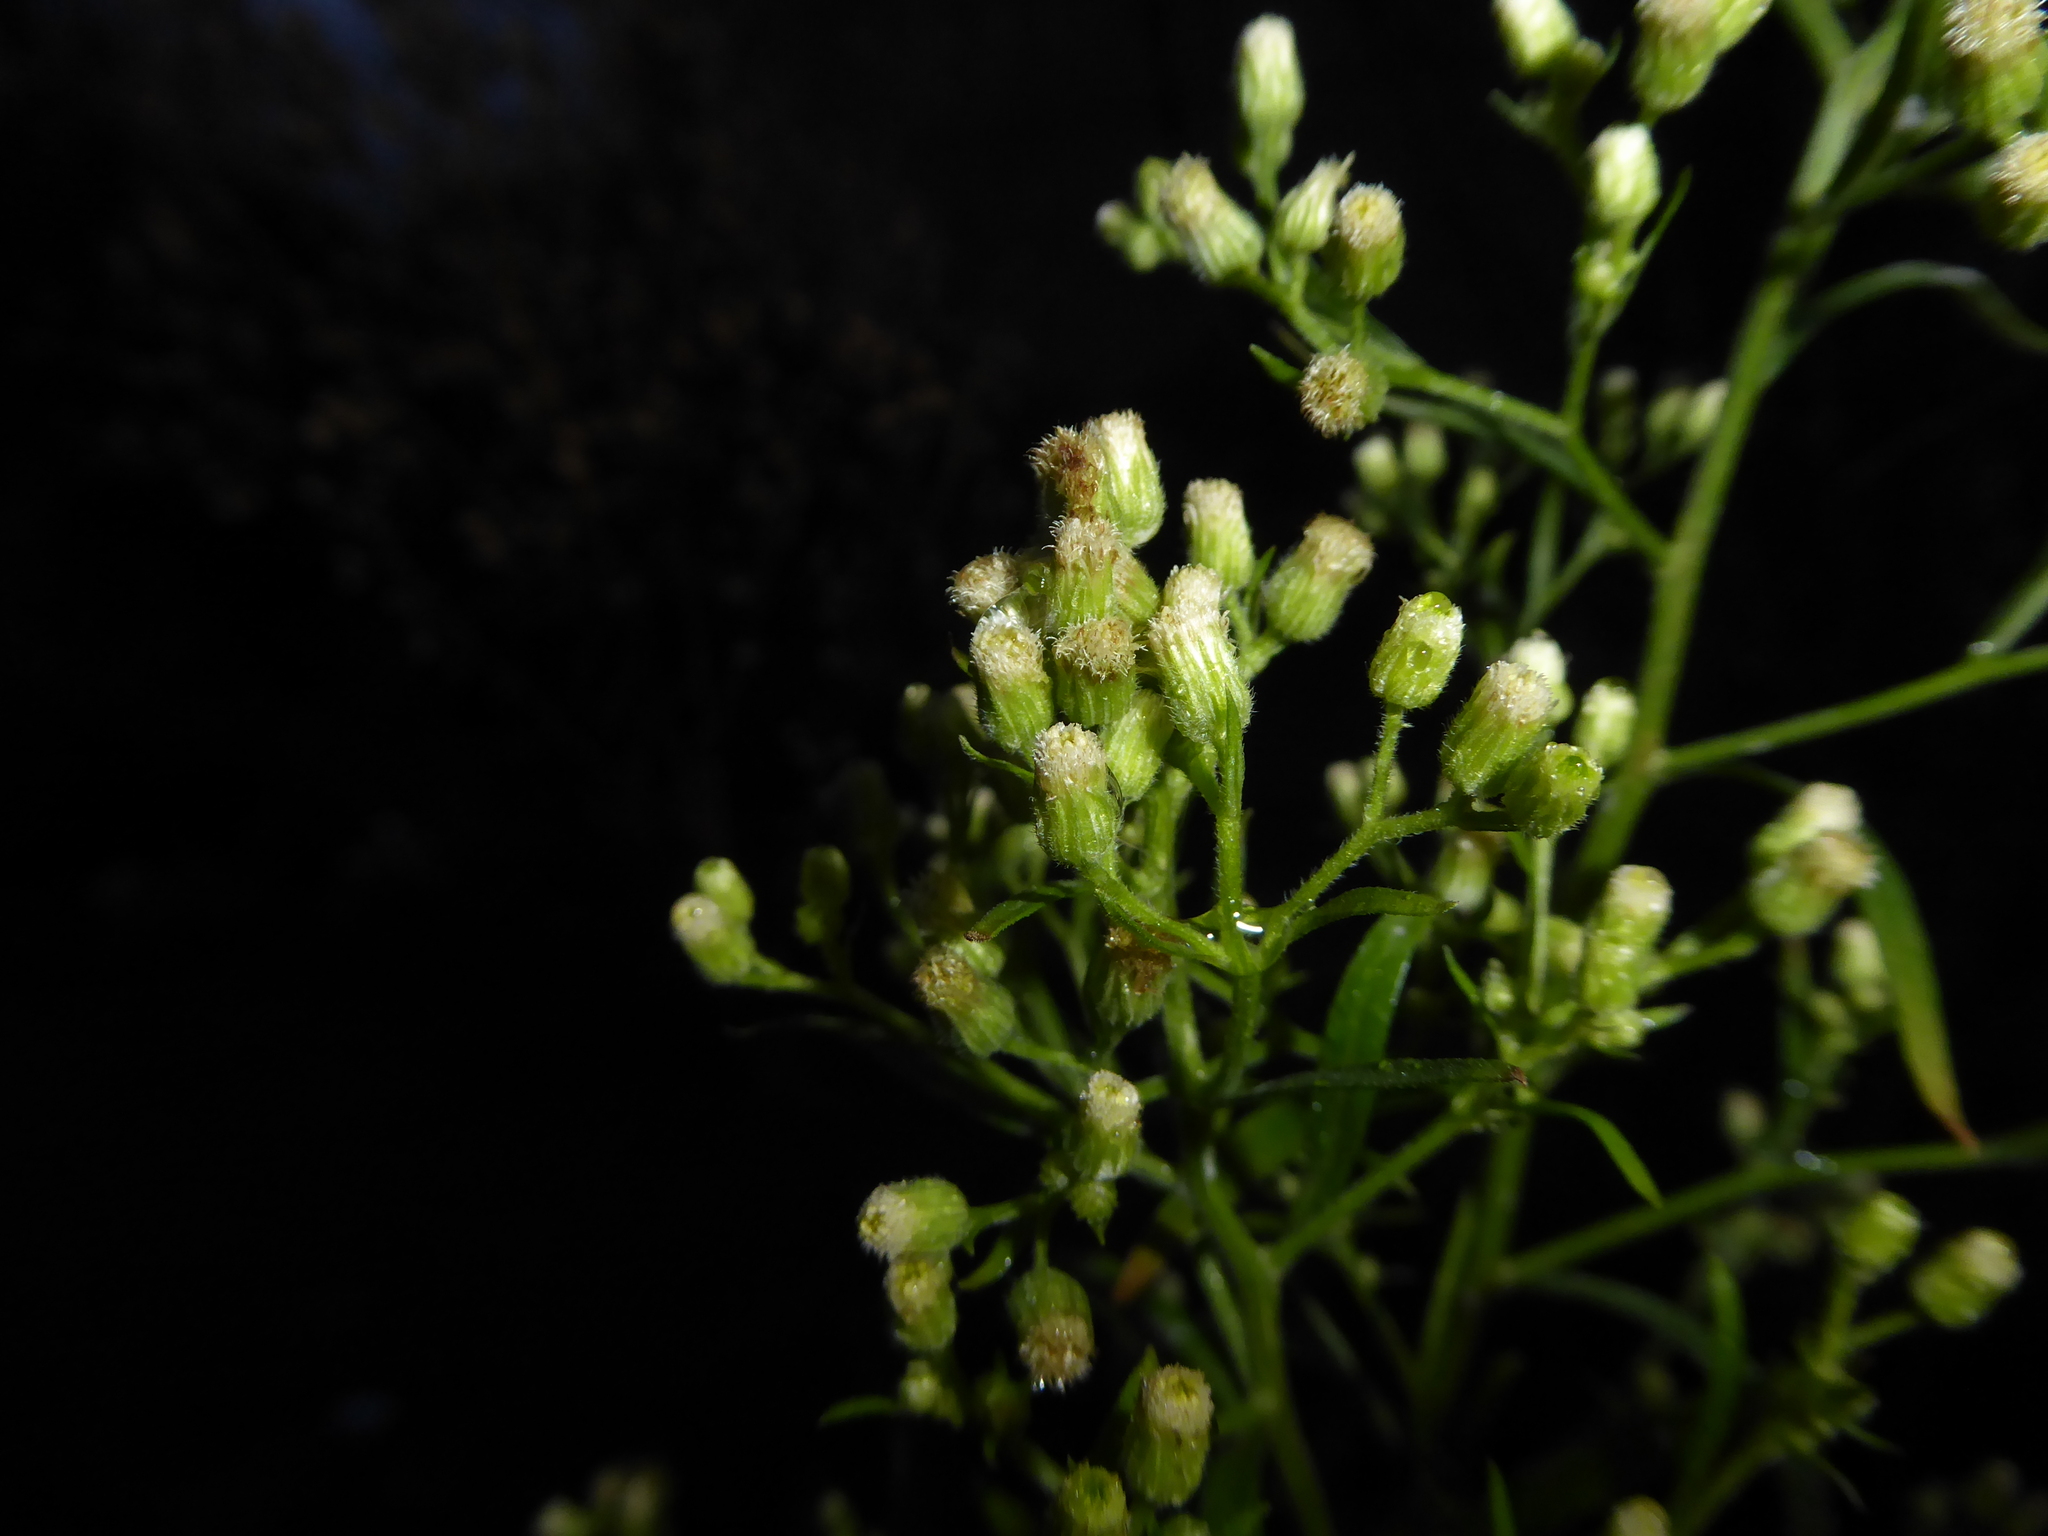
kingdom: Plantae
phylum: Tracheophyta
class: Magnoliopsida
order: Asterales
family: Asteraceae
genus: Erigeron
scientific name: Erigeron sumatrensis
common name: Daisy
